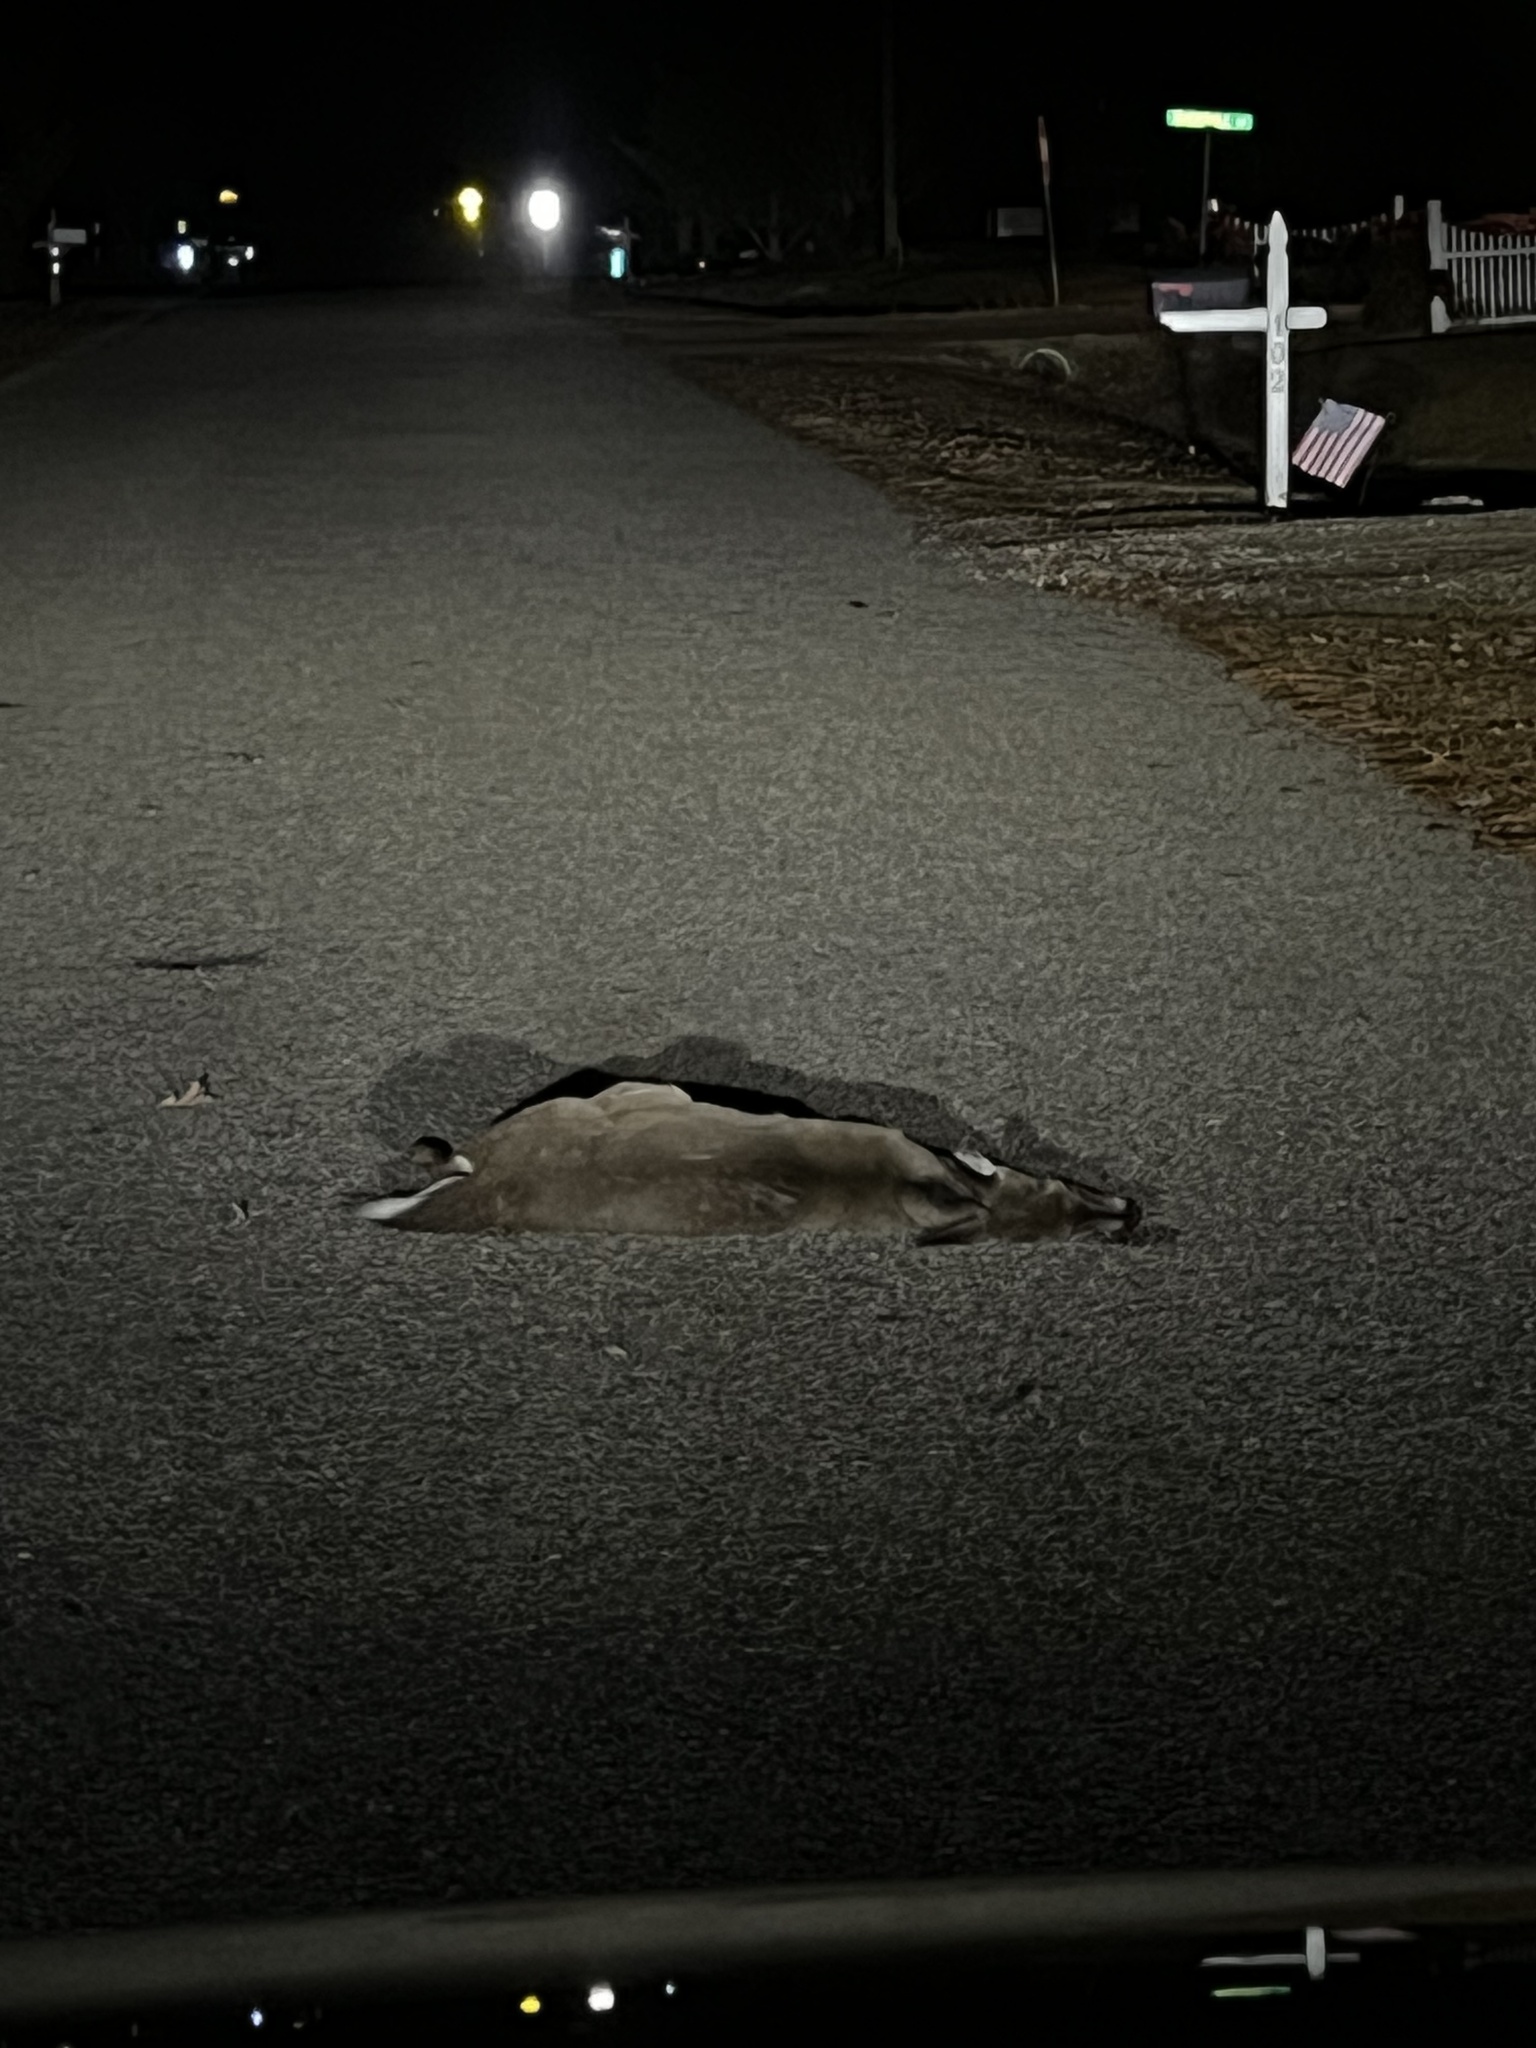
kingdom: Animalia
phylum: Chordata
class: Mammalia
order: Artiodactyla
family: Cervidae
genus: Odocoileus
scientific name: Odocoileus virginianus
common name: White-tailed deer
